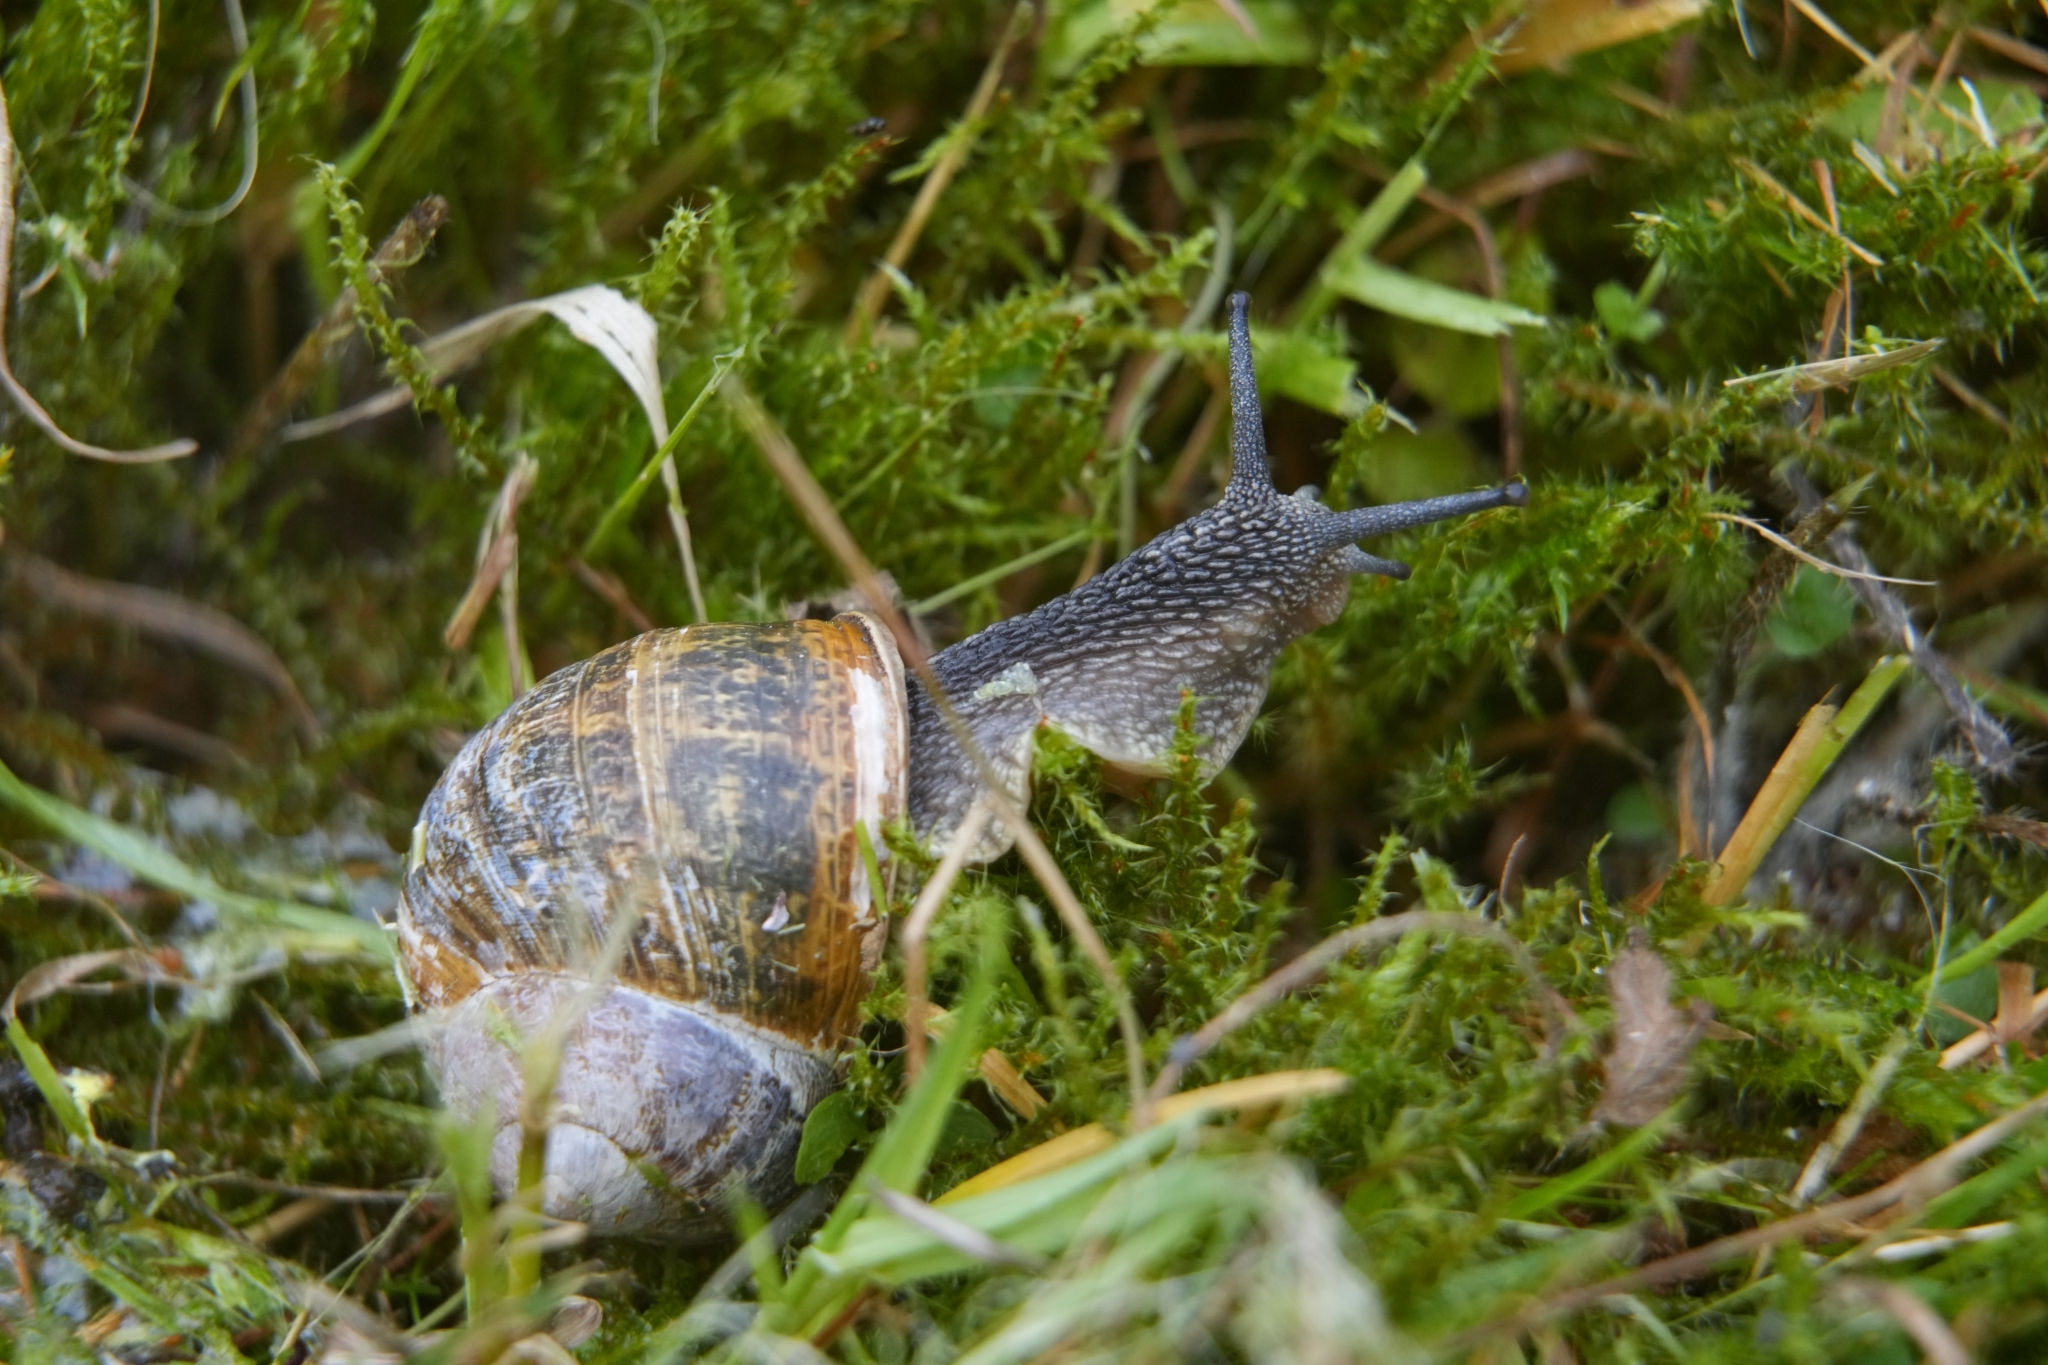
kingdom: Animalia
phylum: Mollusca
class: Gastropoda
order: Stylommatophora
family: Helicidae
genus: Cornu
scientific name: Cornu aspersum
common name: Brown garden snail
